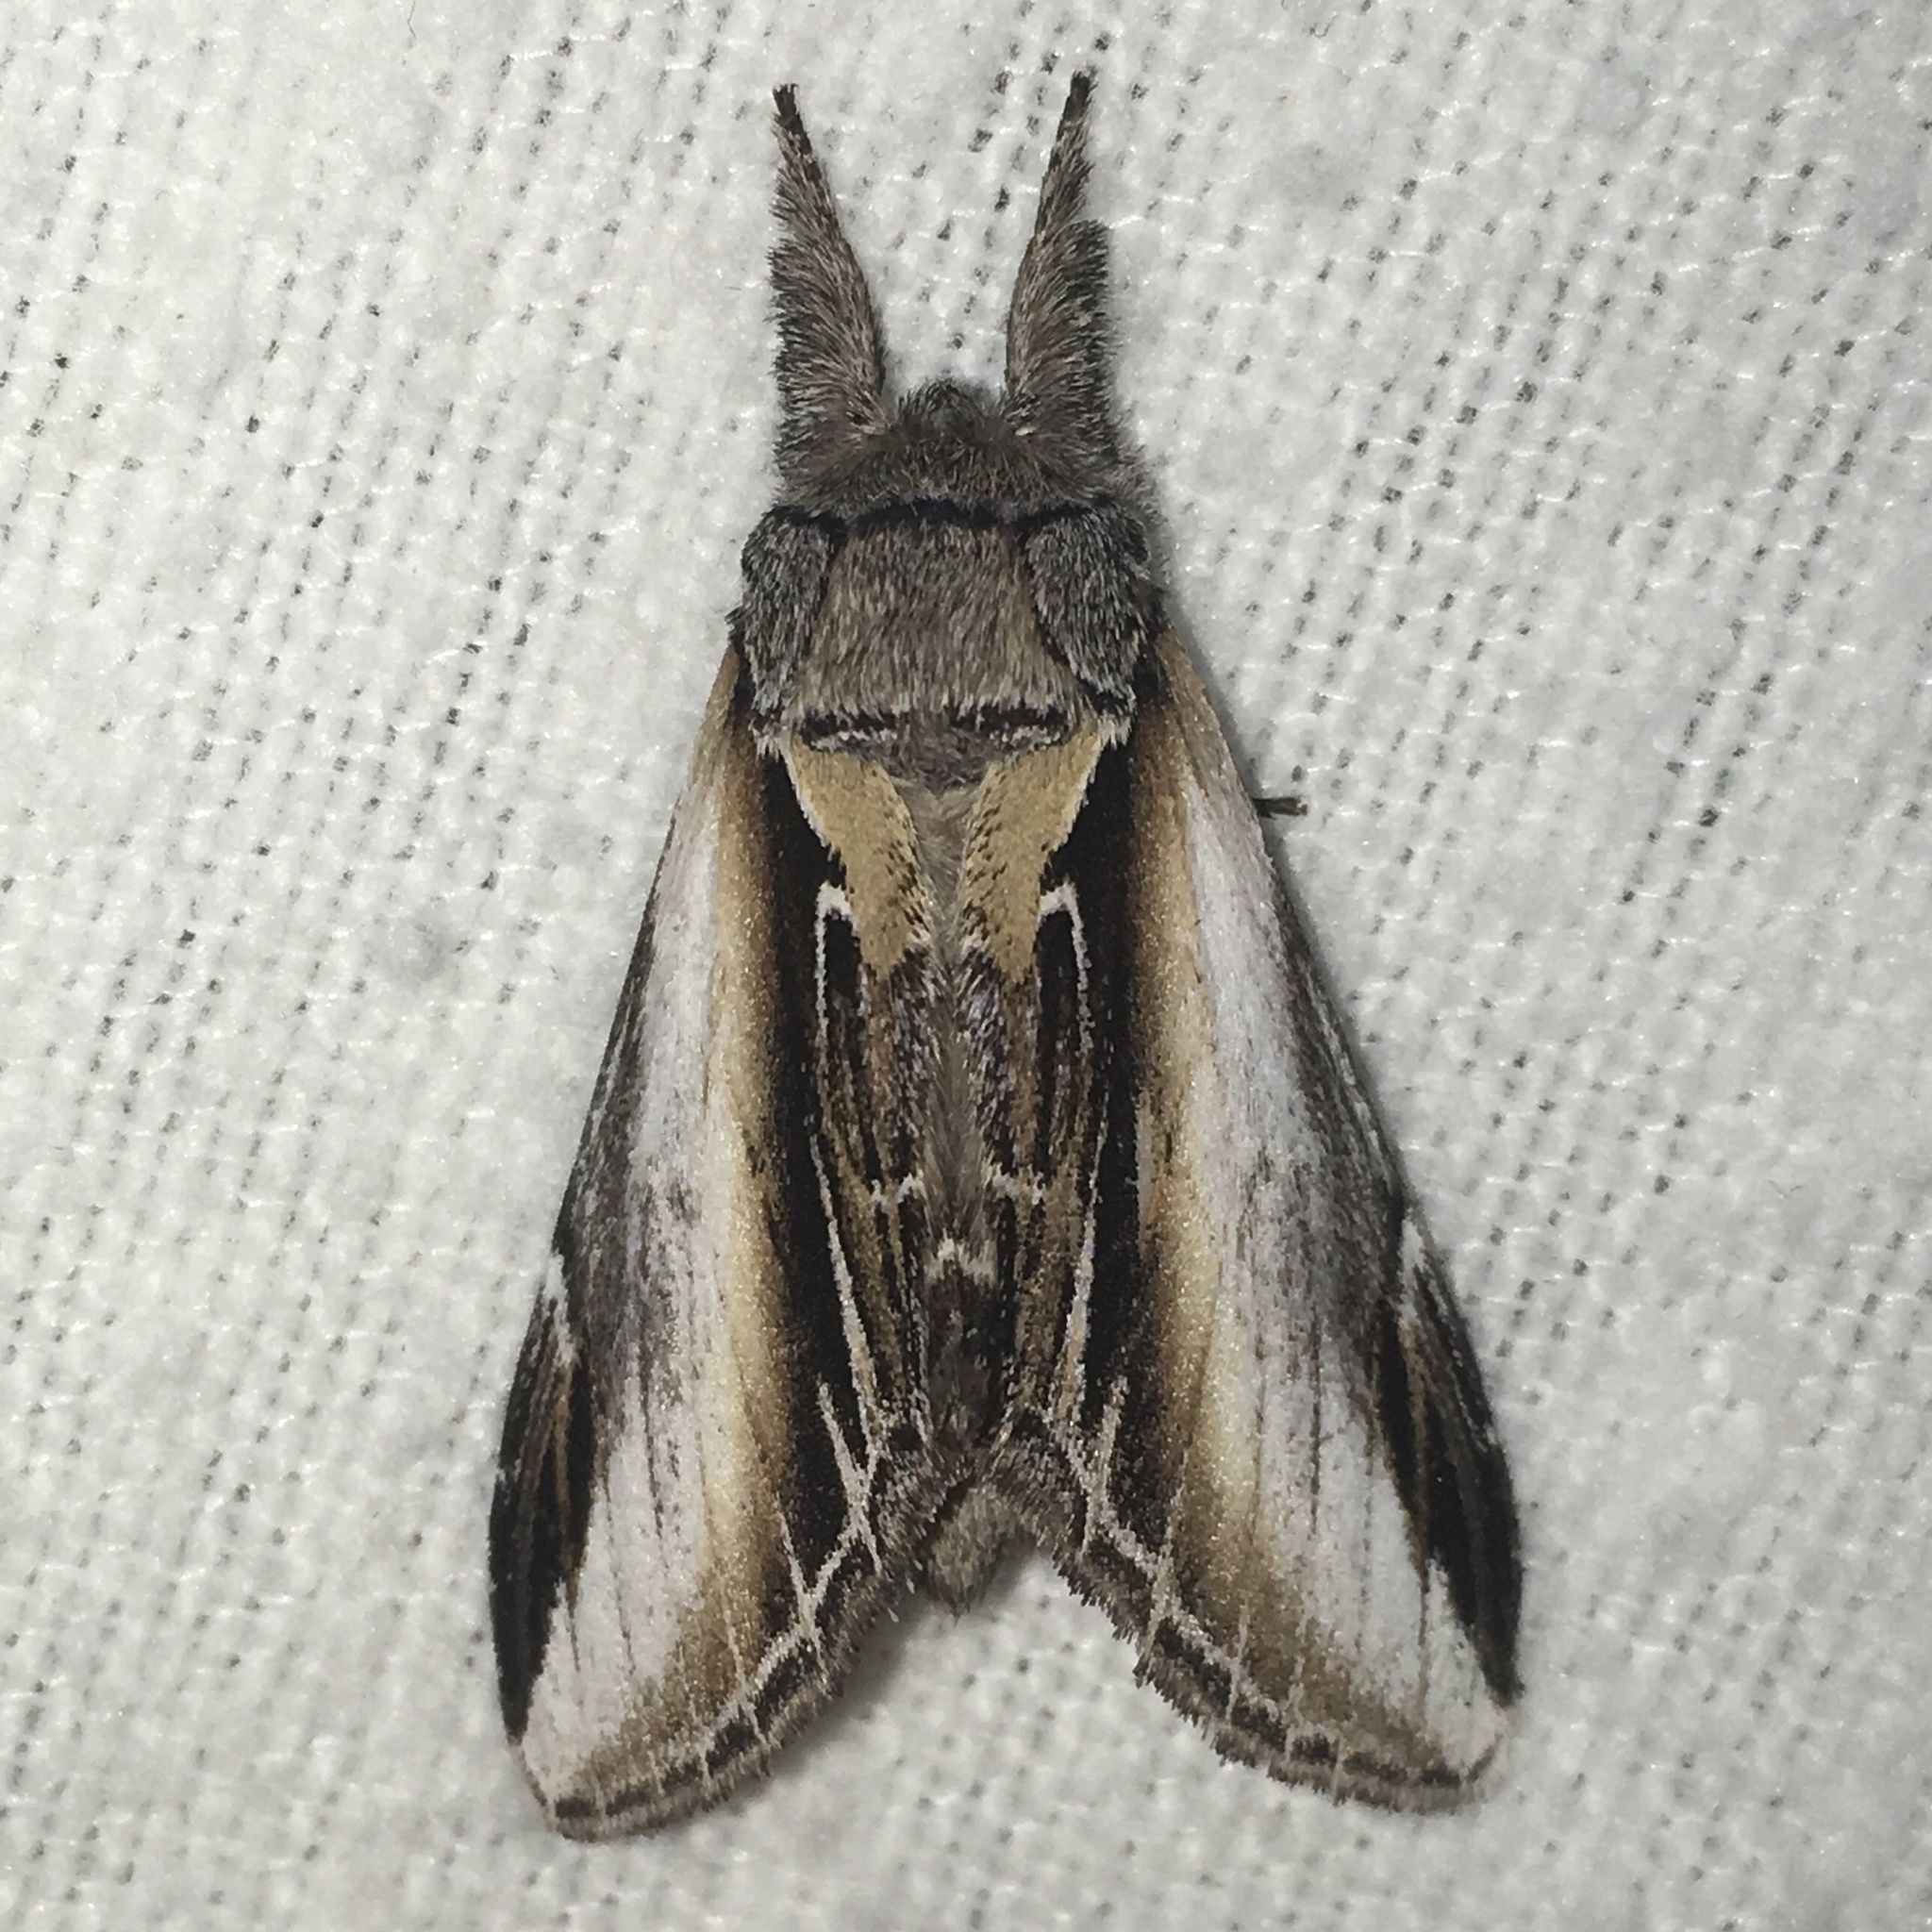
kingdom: Animalia
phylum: Arthropoda
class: Insecta
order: Lepidoptera
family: Notodontidae
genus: Pheosia
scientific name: Pheosia rimosa
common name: Black-rimmed prominent
